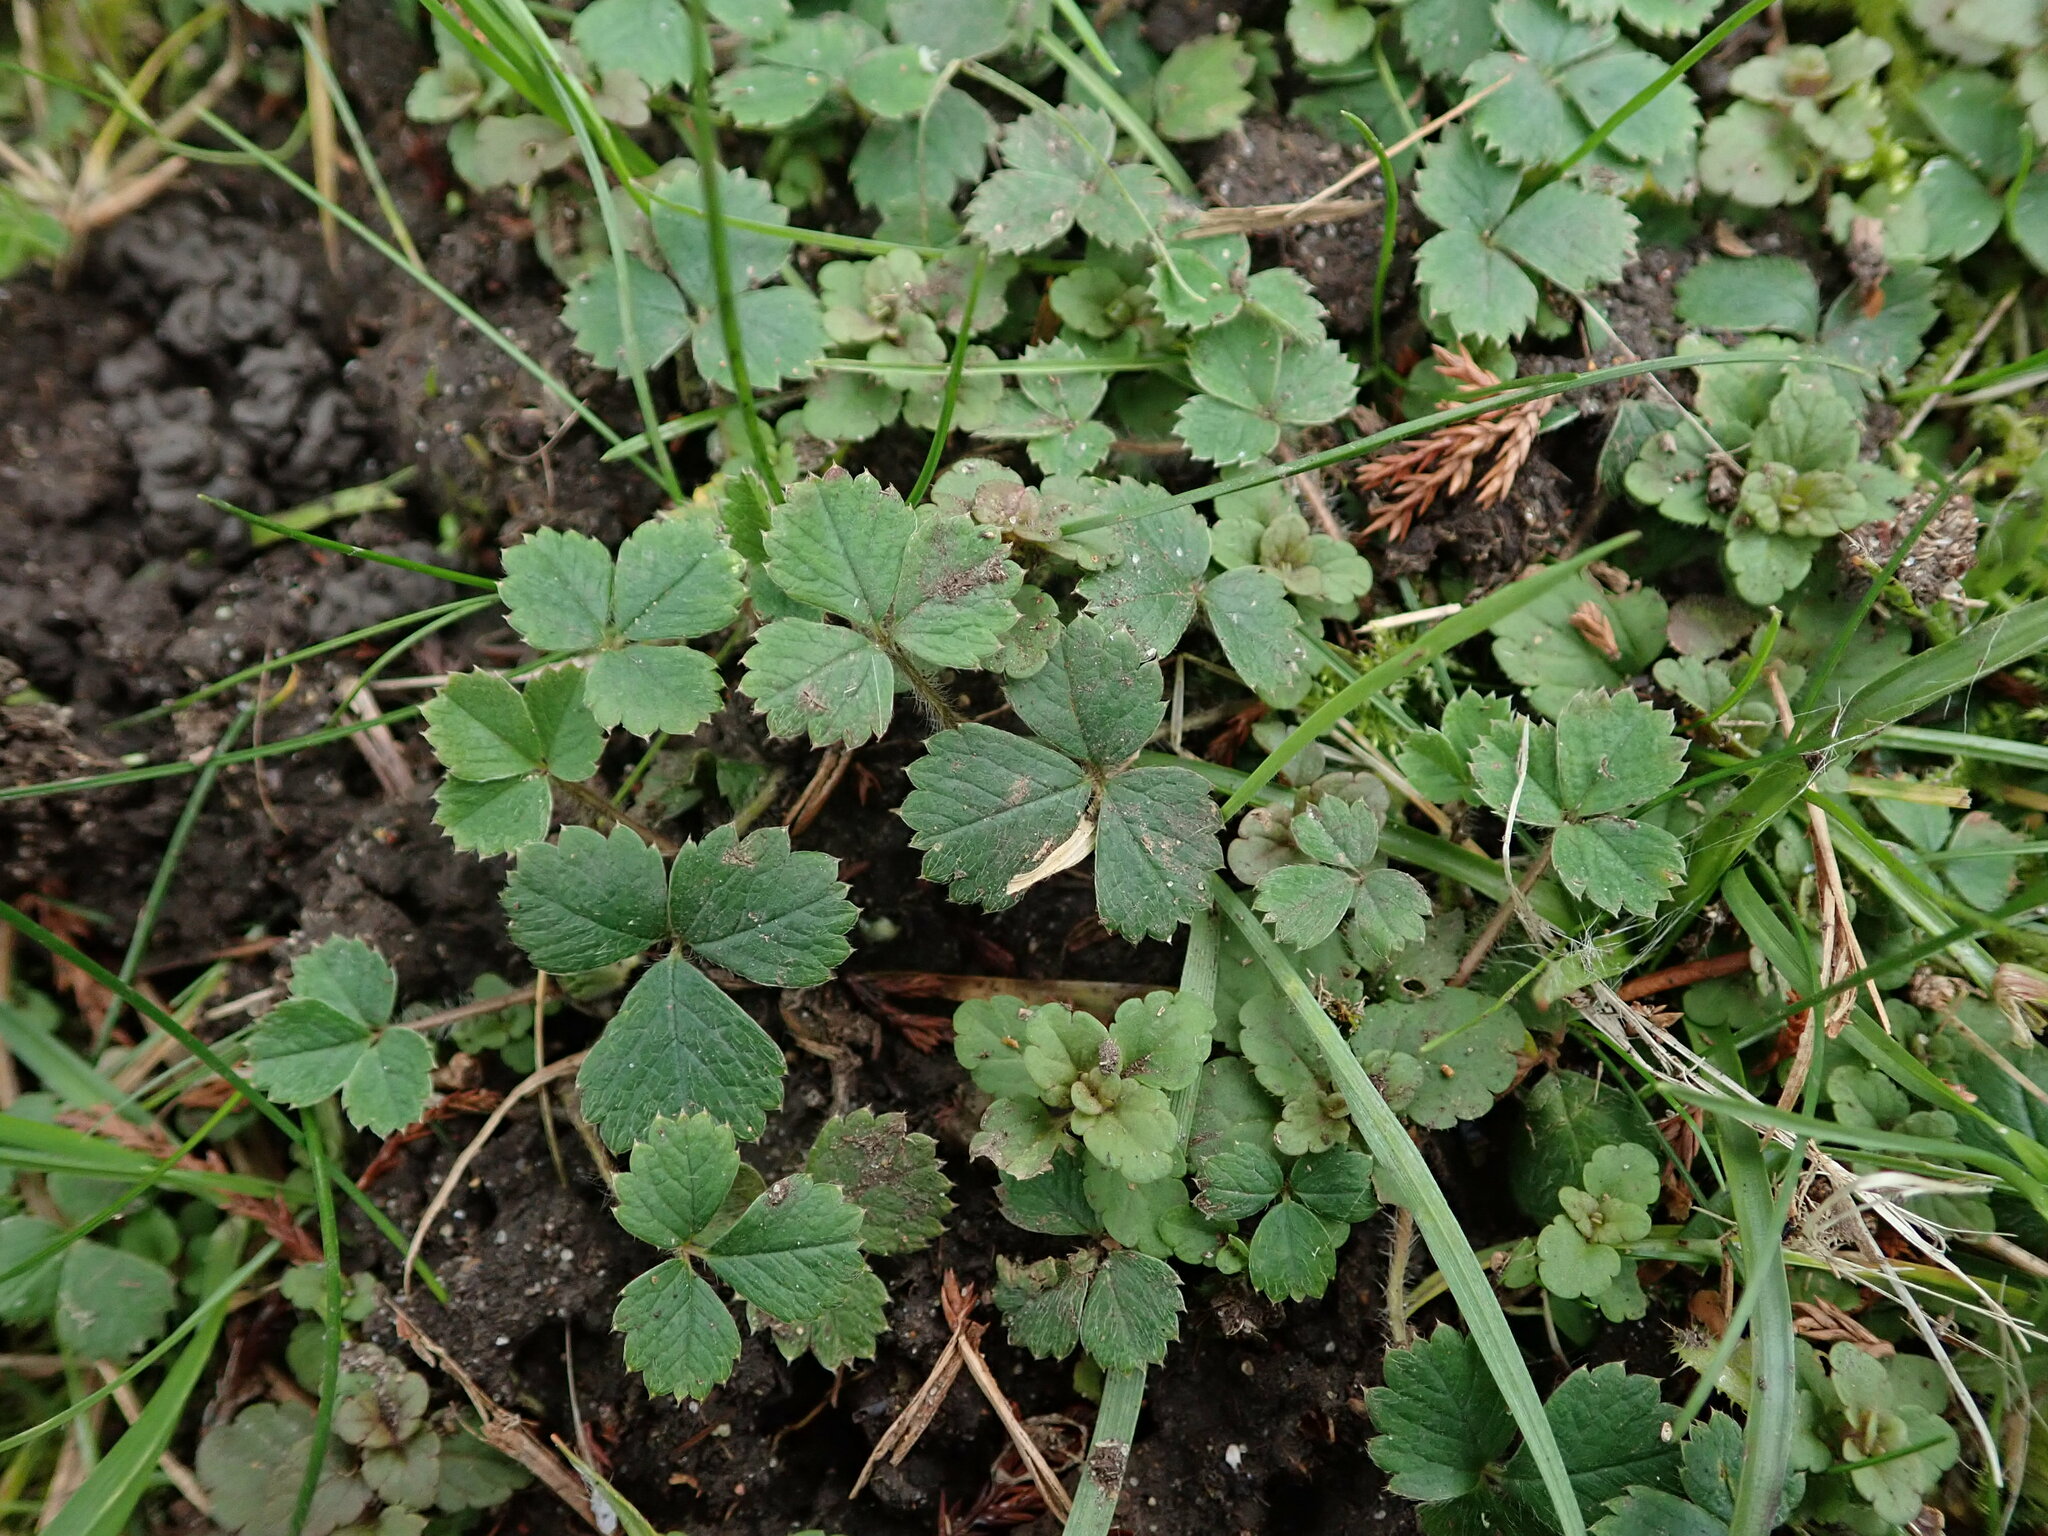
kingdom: Plantae
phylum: Tracheophyta
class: Magnoliopsida
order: Rosales
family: Rosaceae
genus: Potentilla
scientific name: Potentilla sterilis
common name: Barren strawberry
